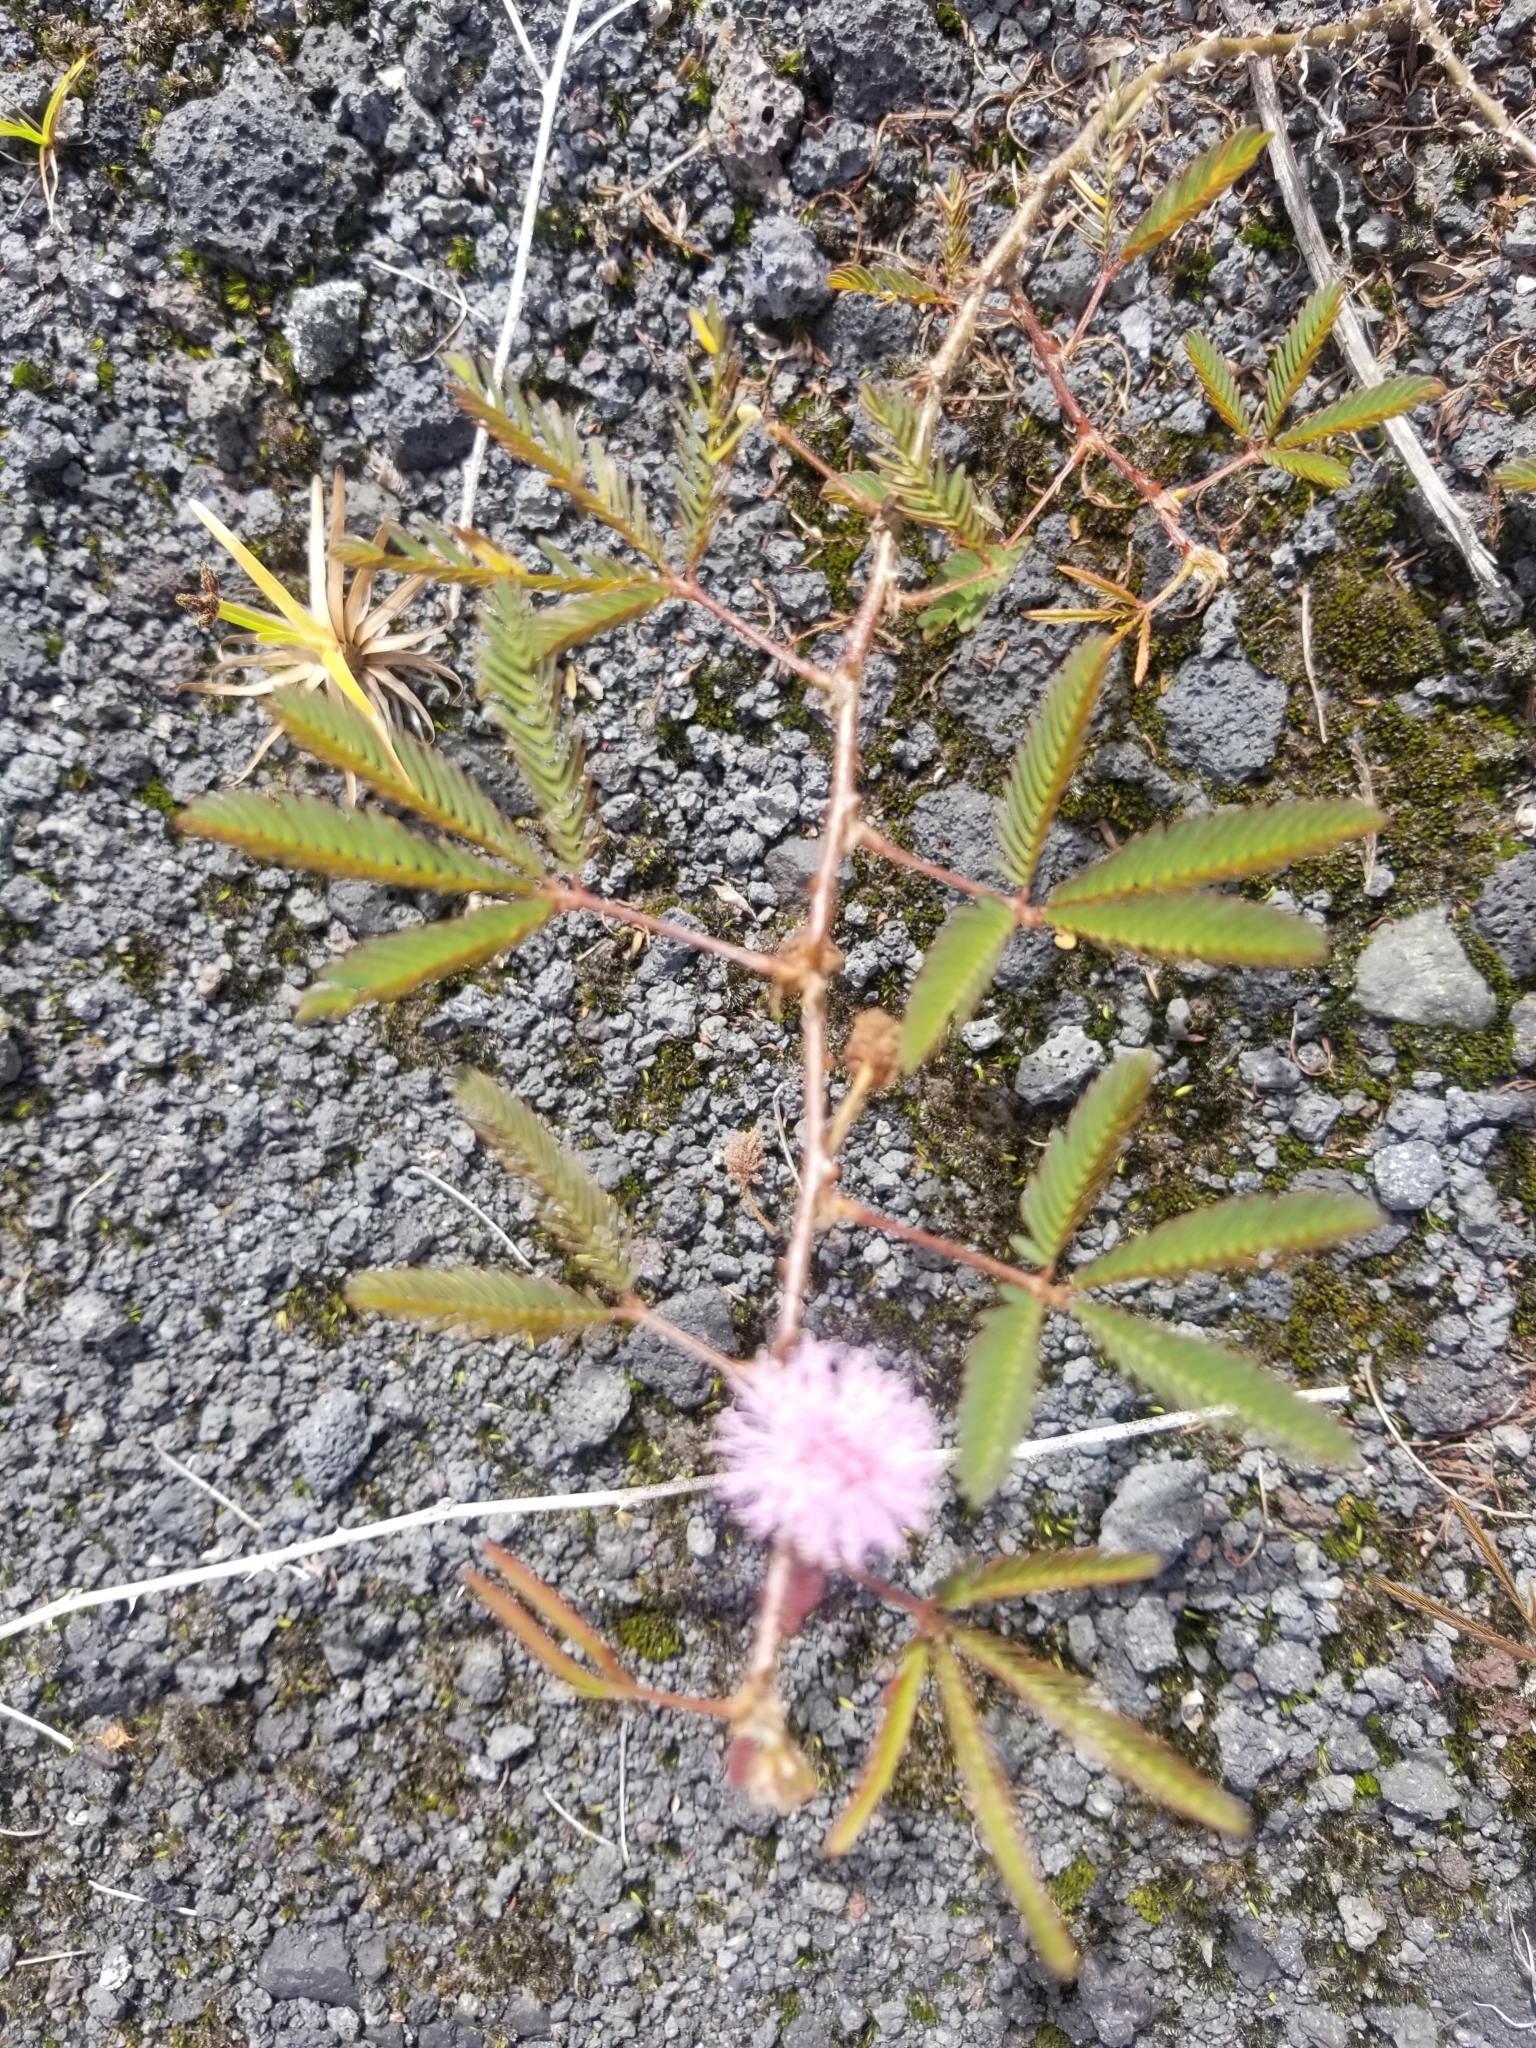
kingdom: Plantae
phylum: Tracheophyta
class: Magnoliopsida
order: Fabales
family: Fabaceae
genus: Mimosa
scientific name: Mimosa pudica
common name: Sensitive plant
